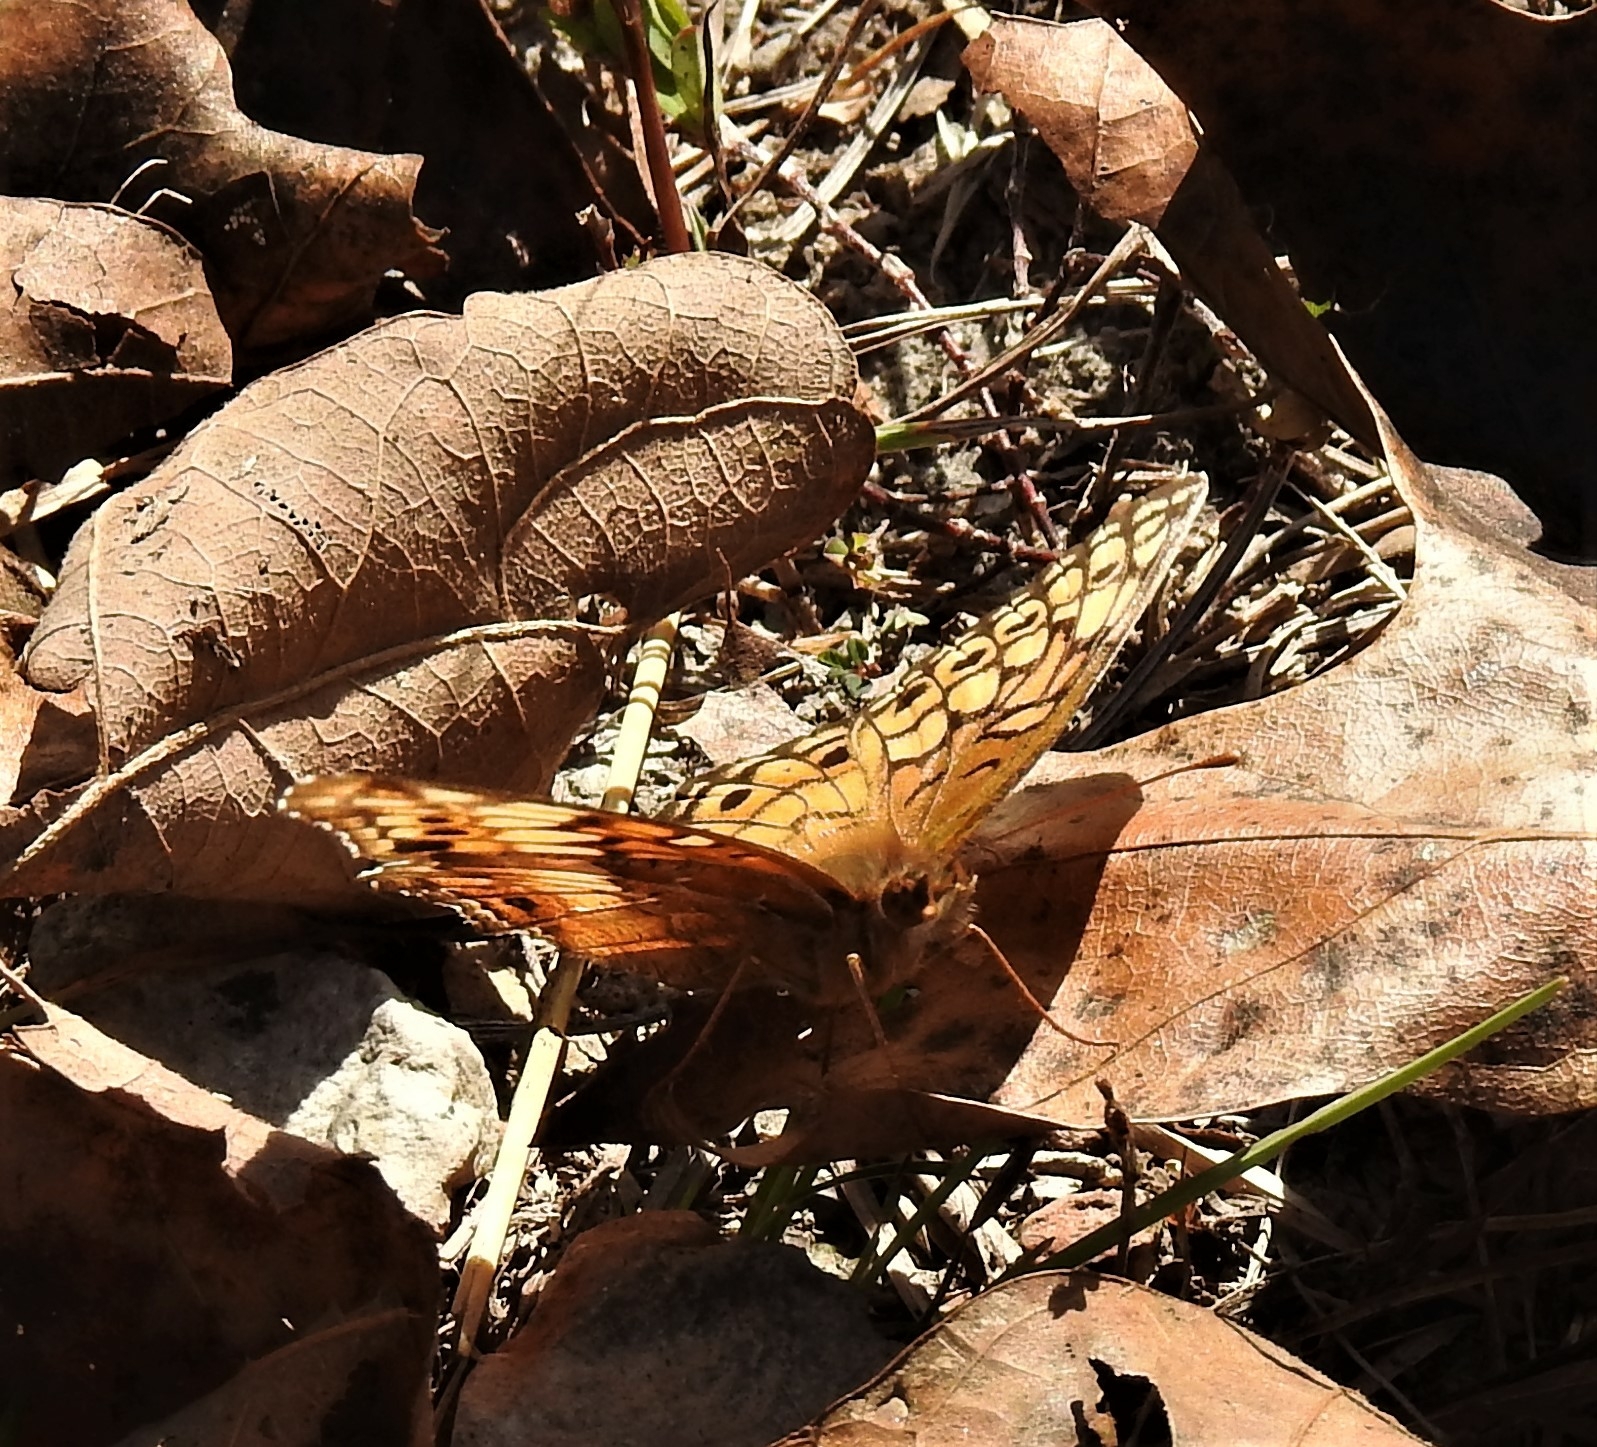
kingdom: Animalia
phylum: Arthropoda
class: Insecta
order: Lepidoptera
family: Nymphalidae
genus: Euptoieta
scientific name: Euptoieta claudia
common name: Variegated fritillary
